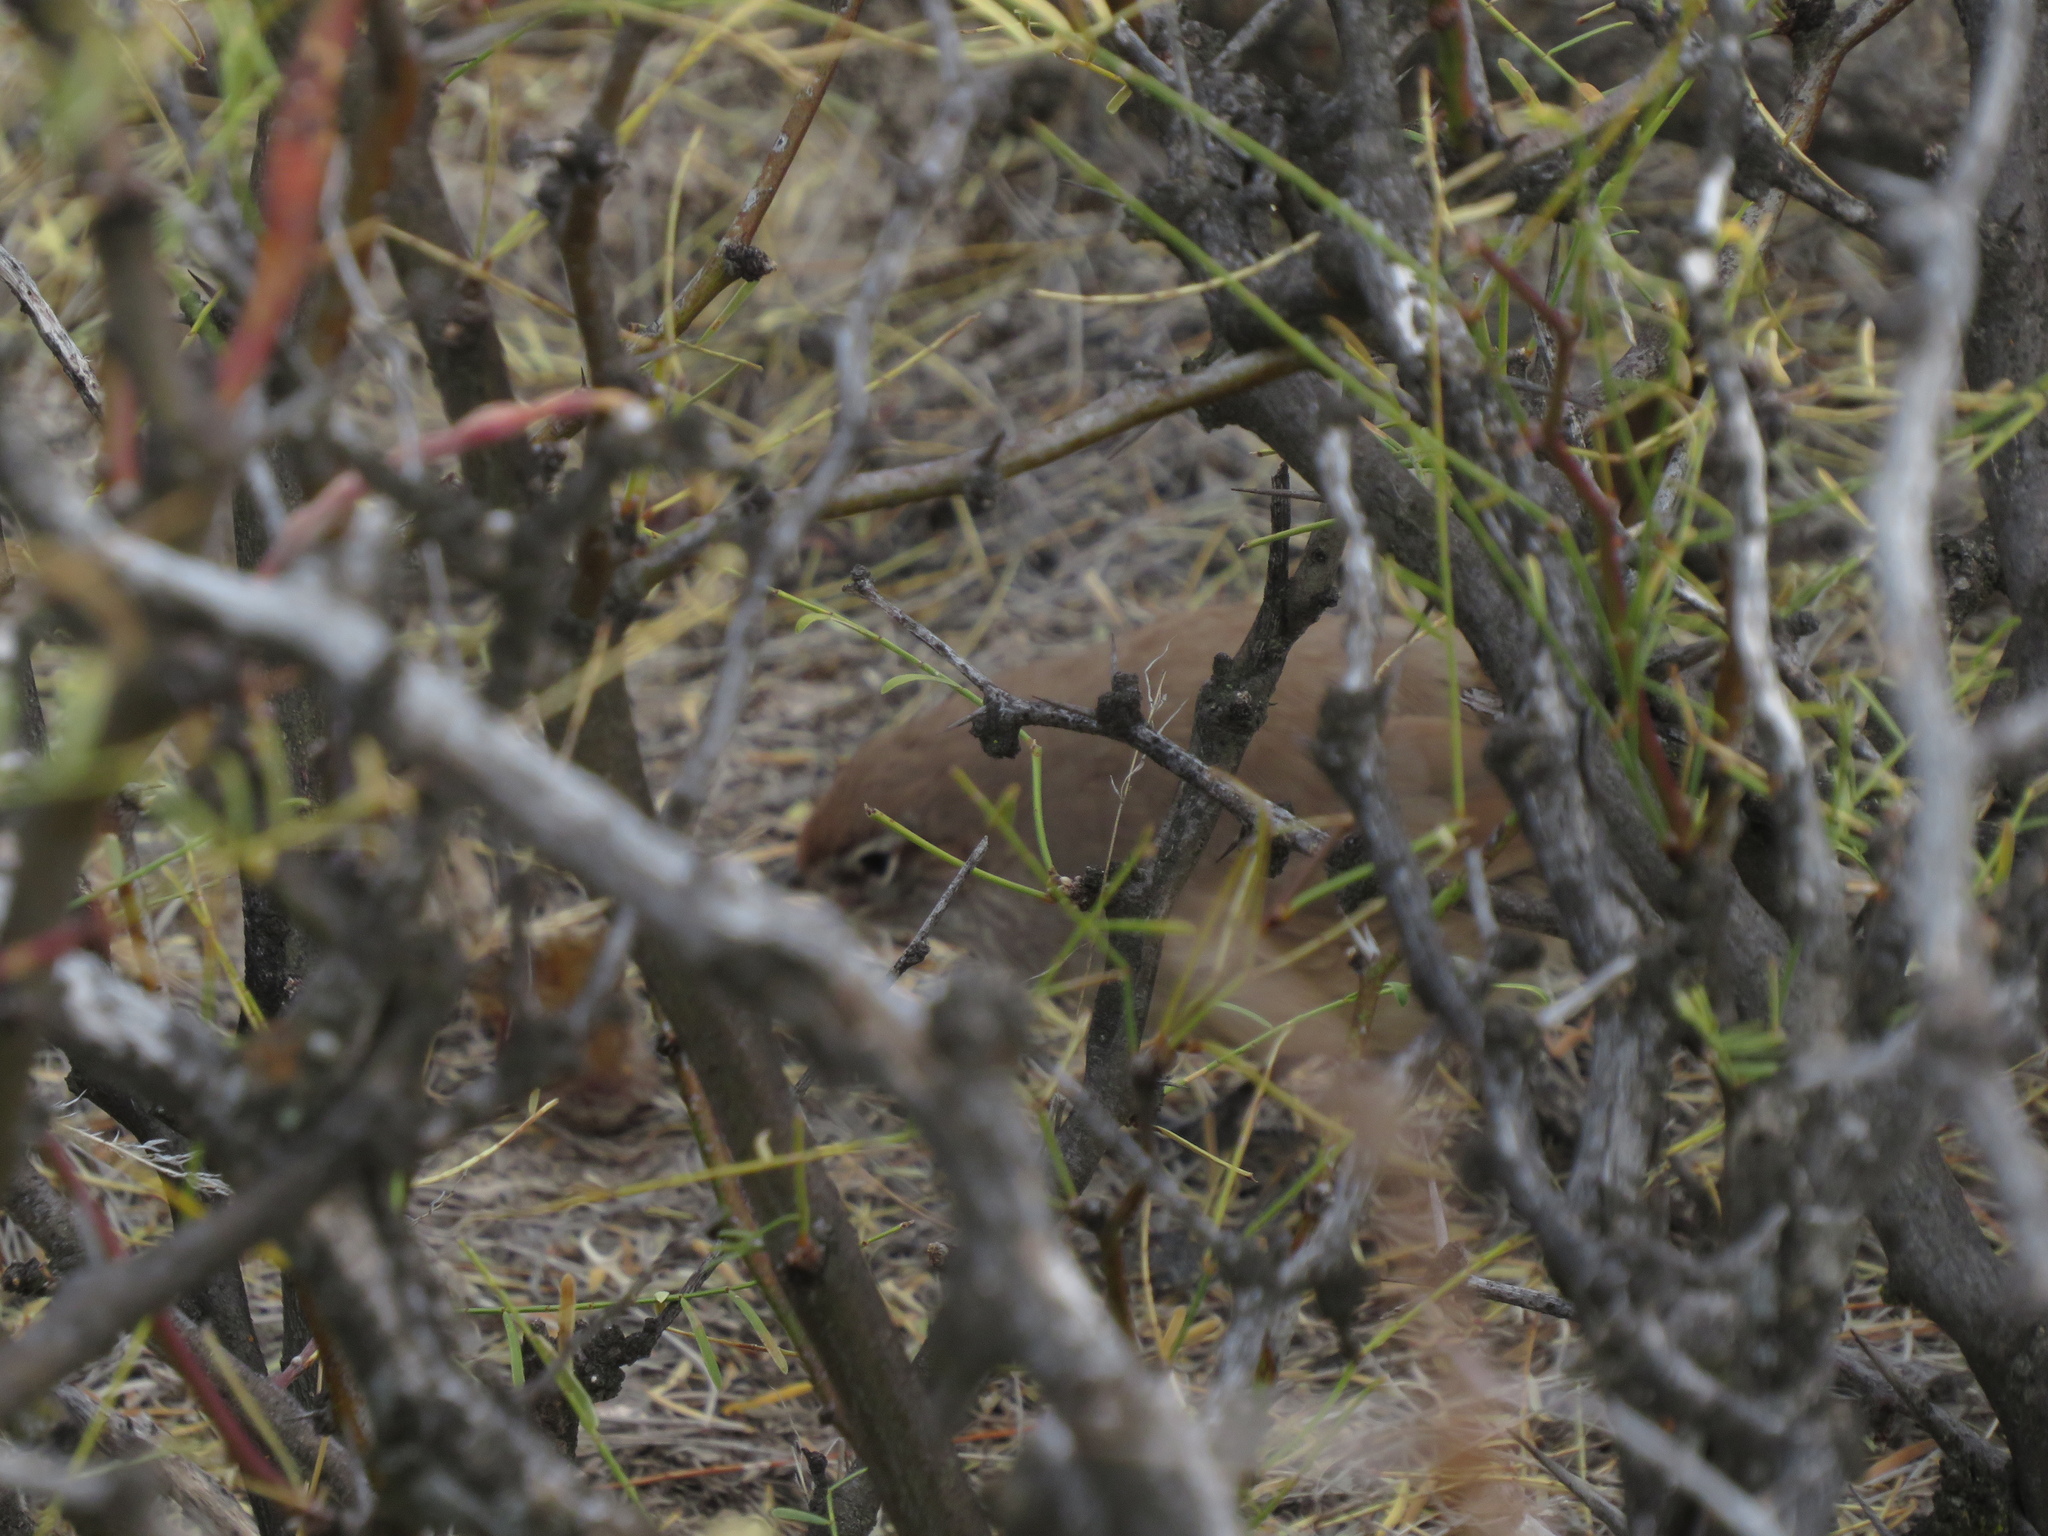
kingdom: Animalia
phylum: Chordata
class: Aves
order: Passeriformes
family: Rhinocryptidae
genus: Teledromas
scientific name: Teledromas fuscus
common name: Sandy gallito
